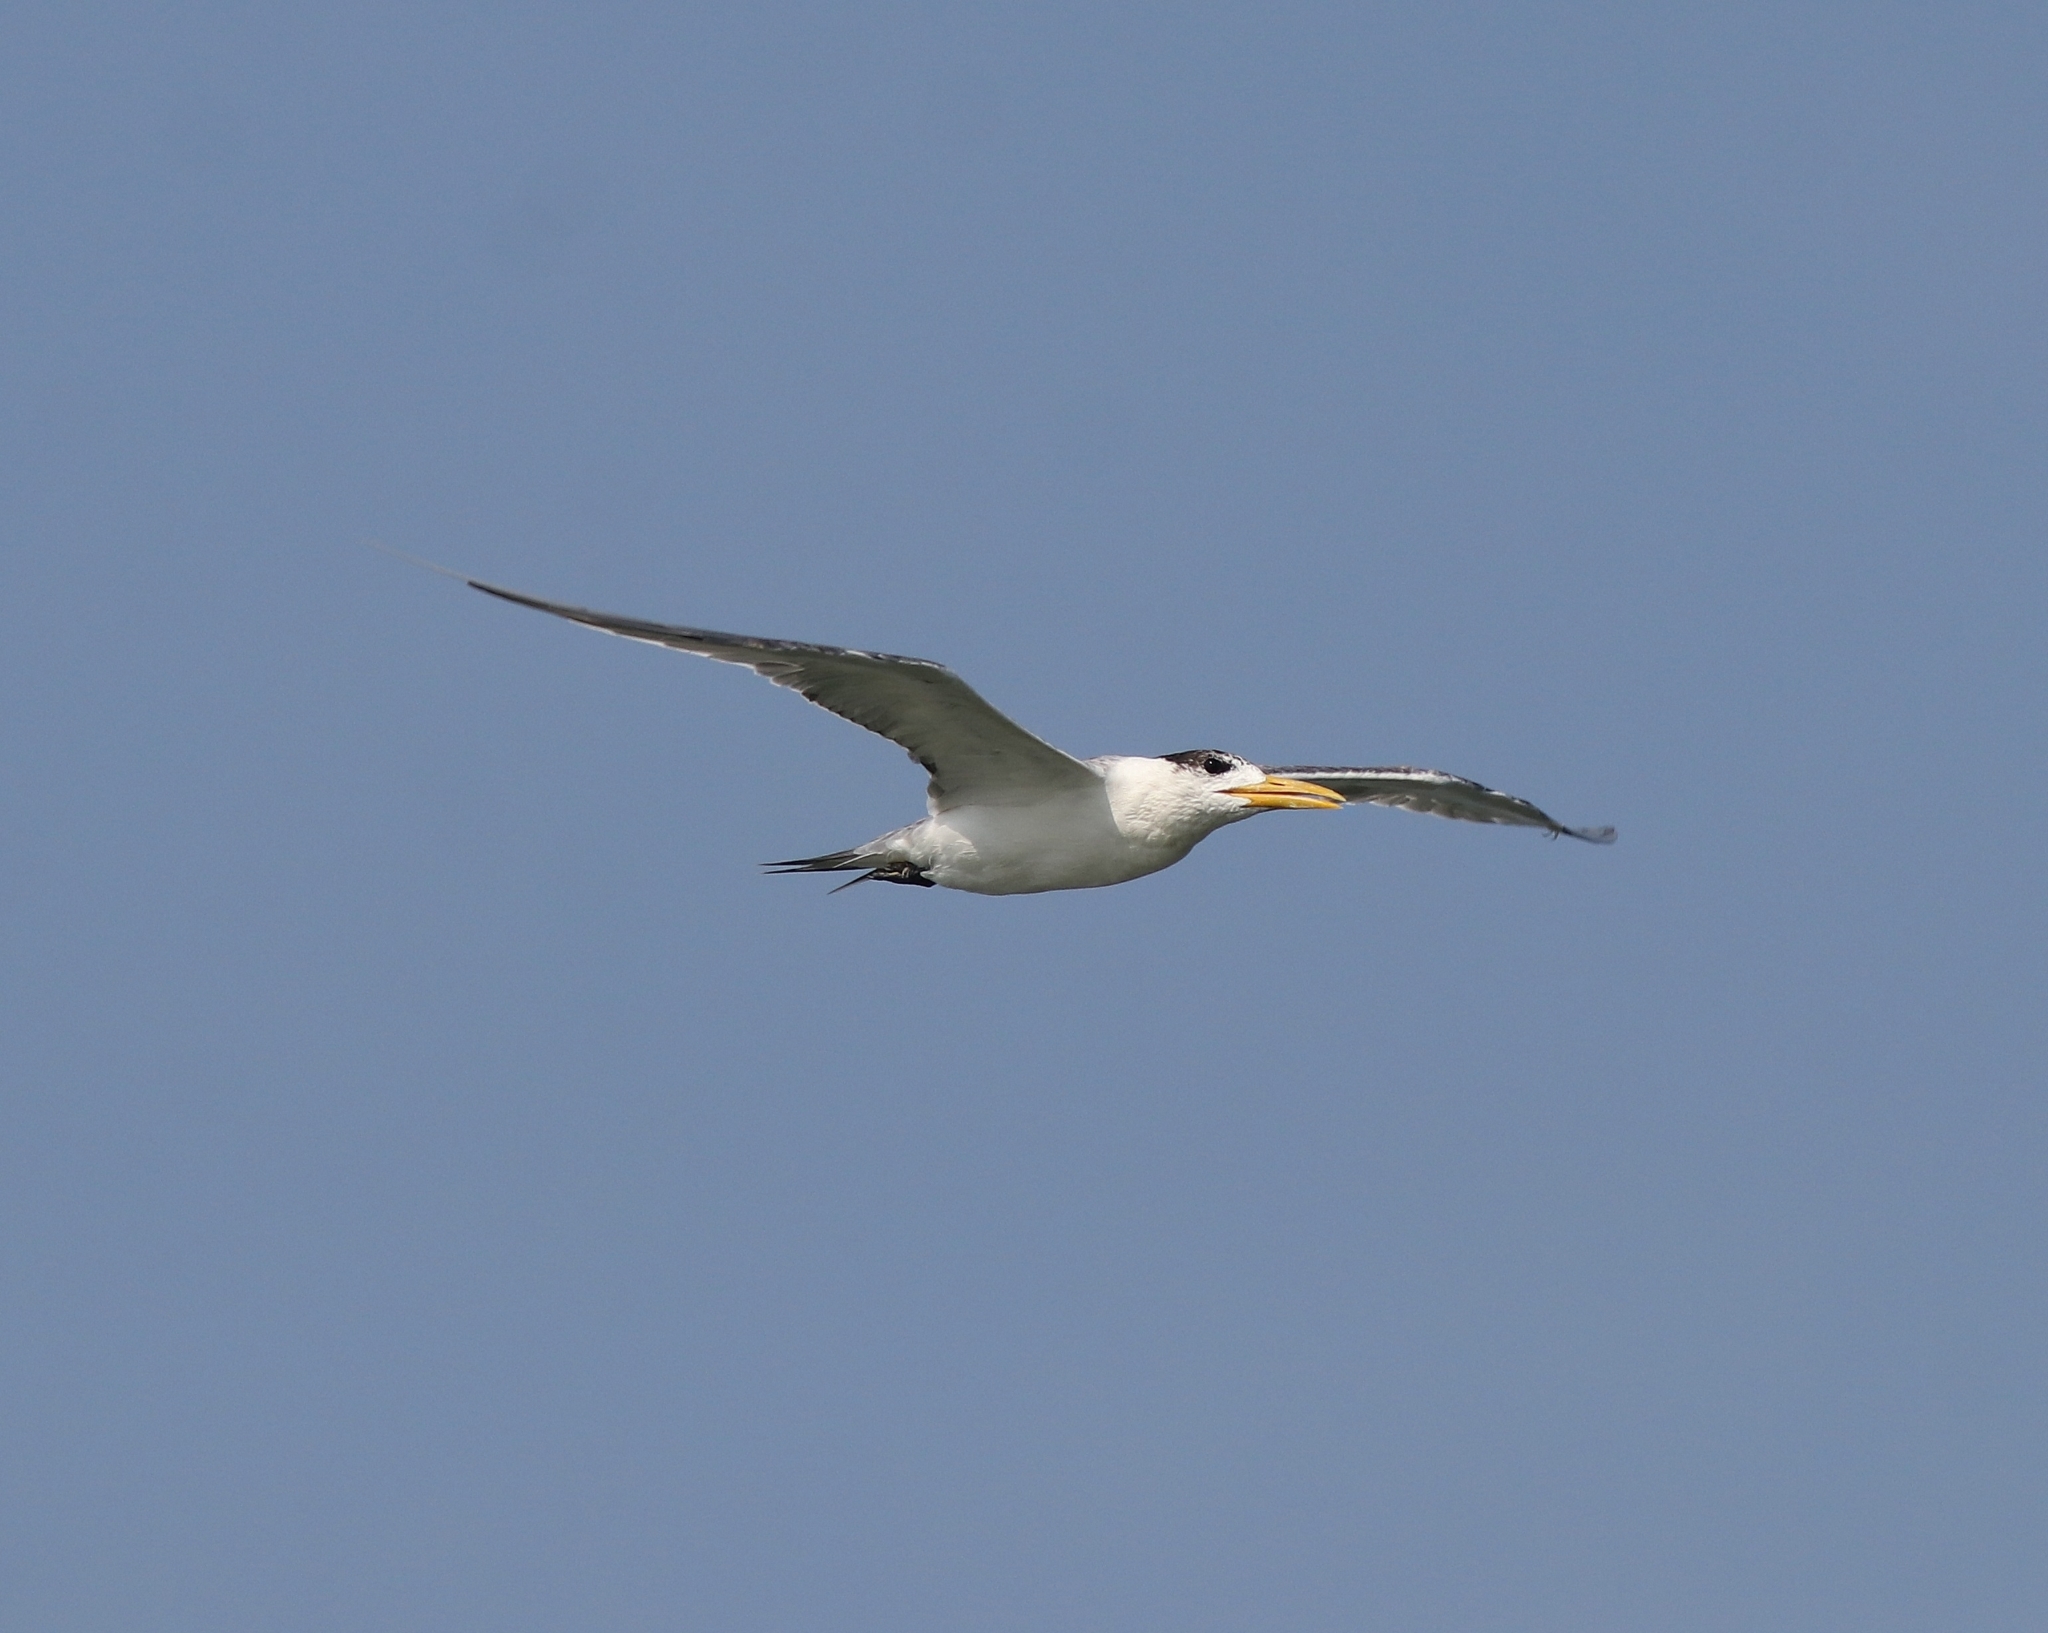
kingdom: Animalia
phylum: Chordata
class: Aves
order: Charadriiformes
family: Laridae
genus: Thalasseus
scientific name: Thalasseus bergii
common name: Greater crested tern
